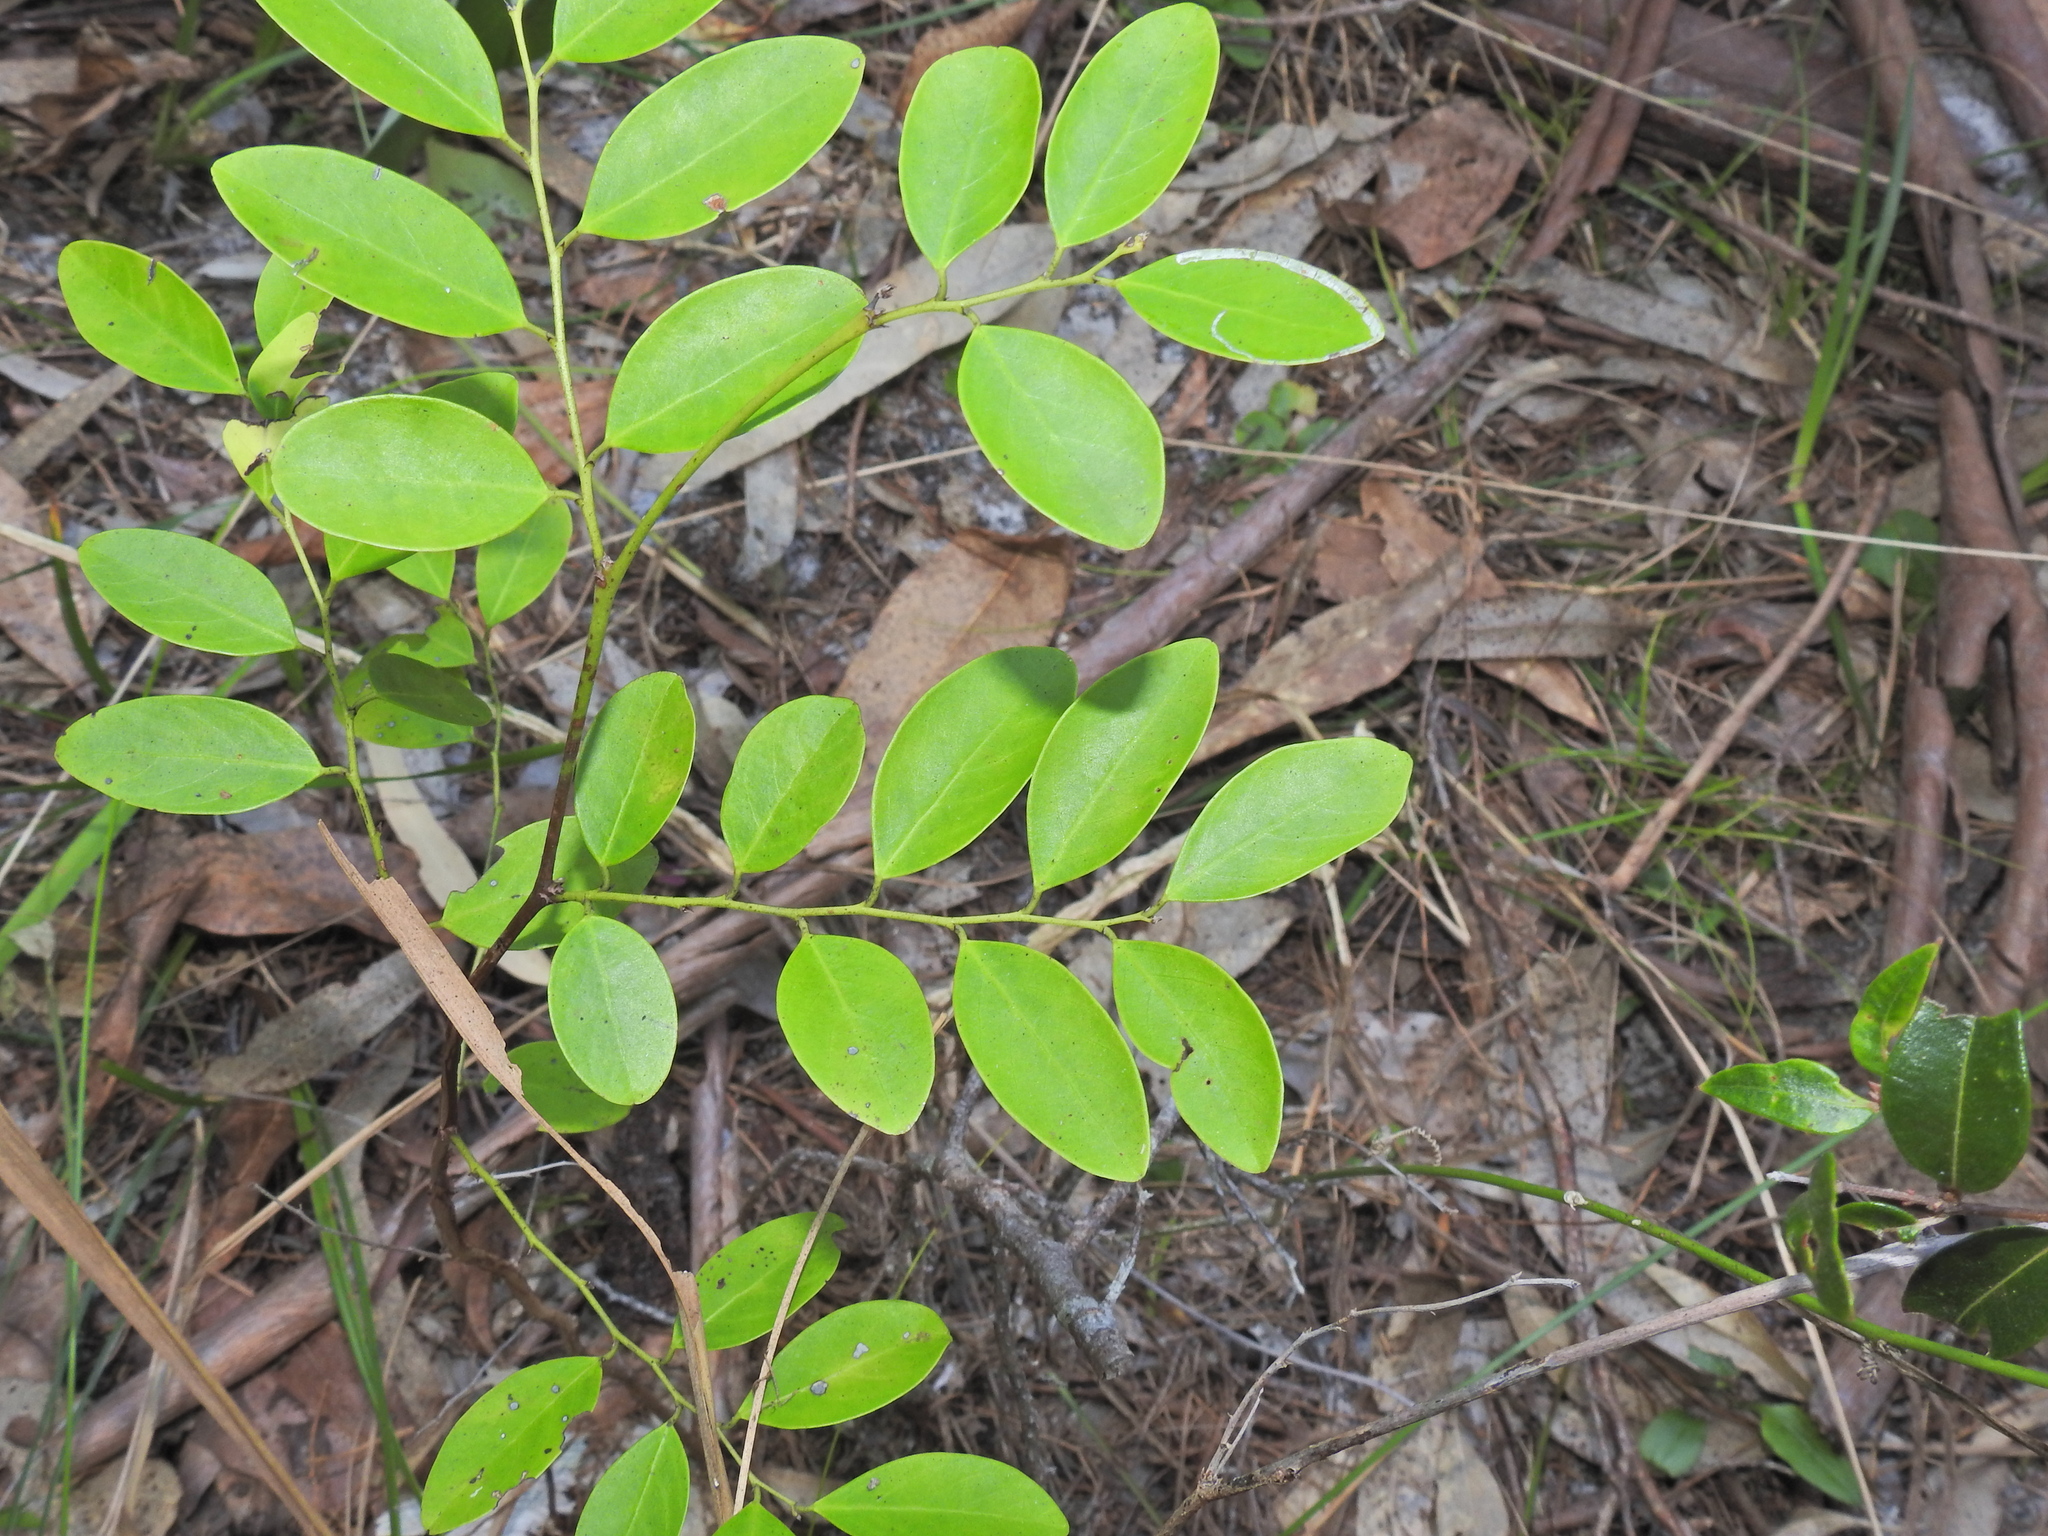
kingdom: Plantae
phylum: Tracheophyta
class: Magnoliopsida
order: Malpighiales
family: Phyllanthaceae
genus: Breynia
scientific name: Breynia oblongifolia
